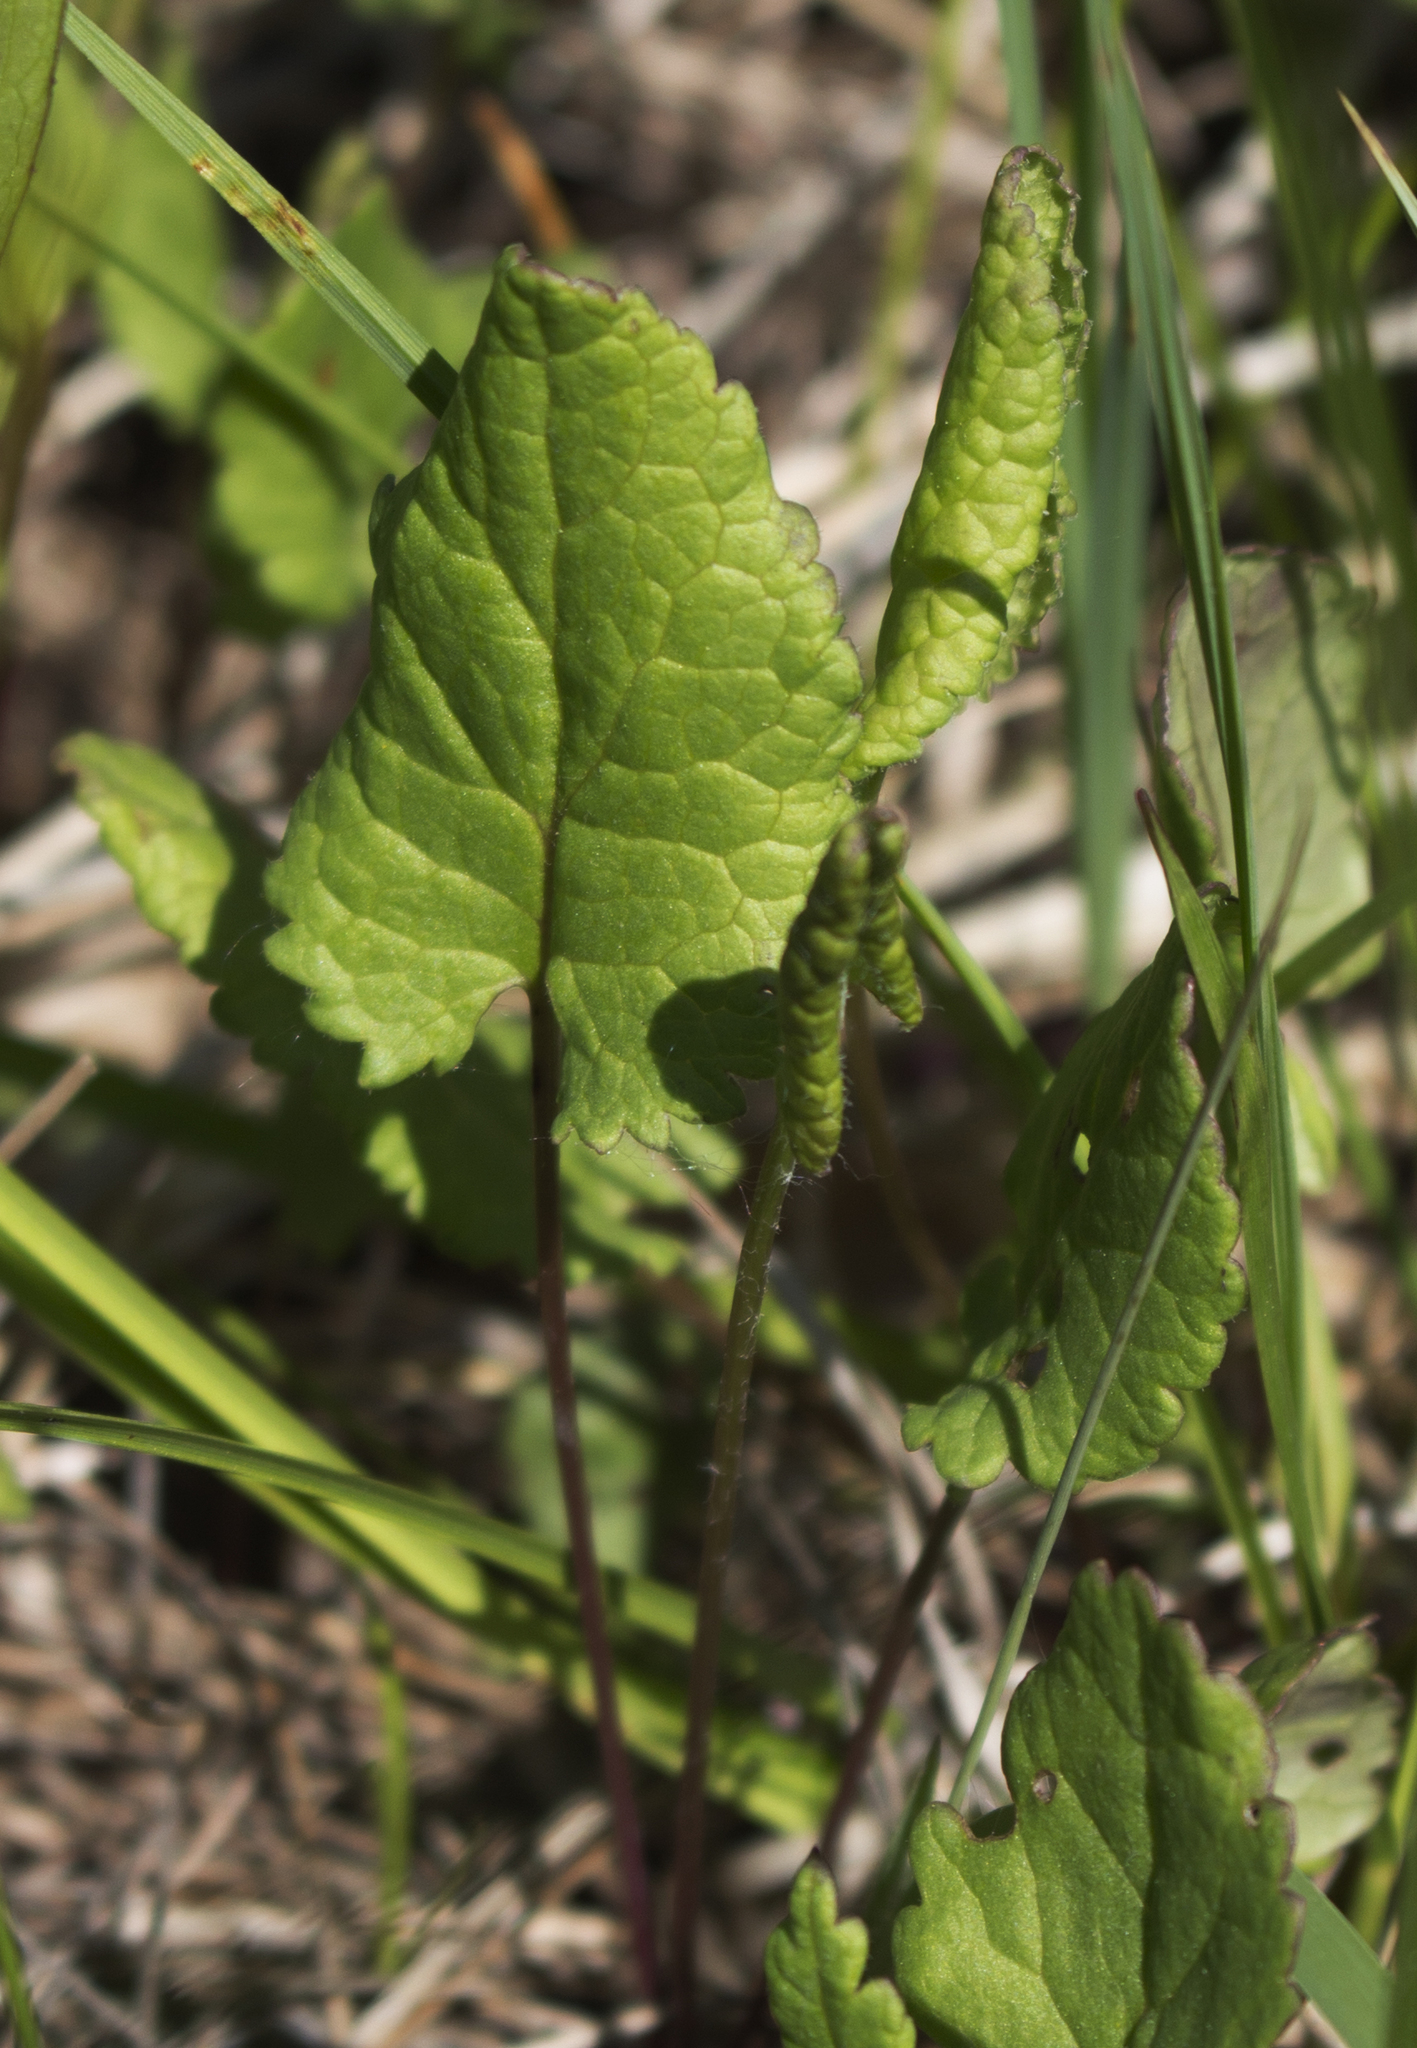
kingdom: Plantae
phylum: Tracheophyta
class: Magnoliopsida
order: Asterales
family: Asteraceae
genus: Packera
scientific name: Packera aurea
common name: Golden groundsel
